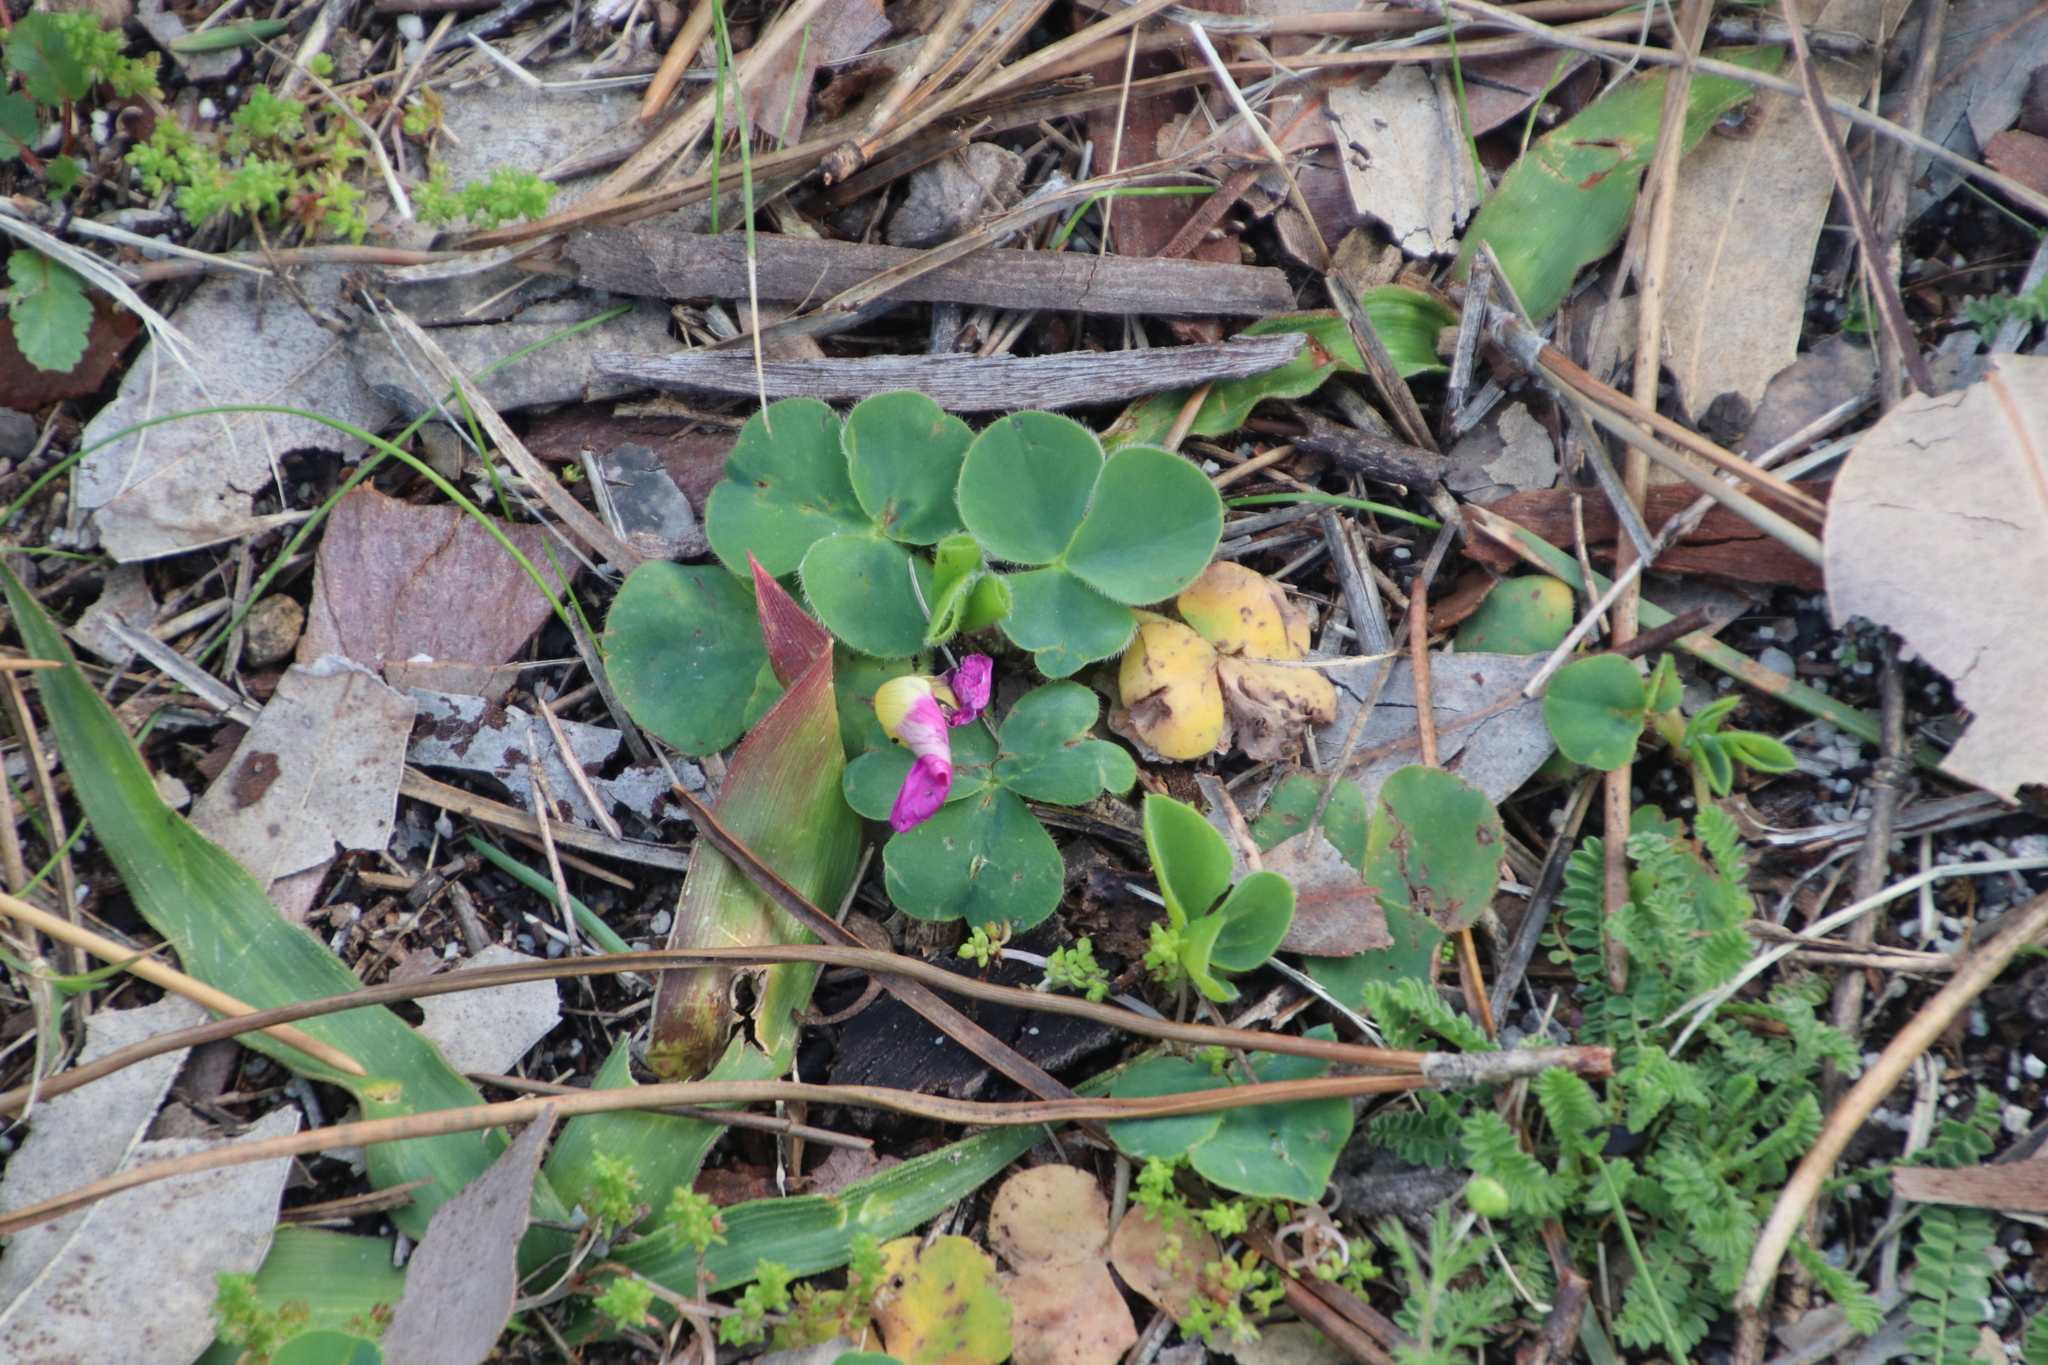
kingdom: Plantae
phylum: Tracheophyta
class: Magnoliopsida
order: Oxalidales
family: Oxalidaceae
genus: Oxalis
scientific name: Oxalis purpurea
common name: Purple woodsorrel
